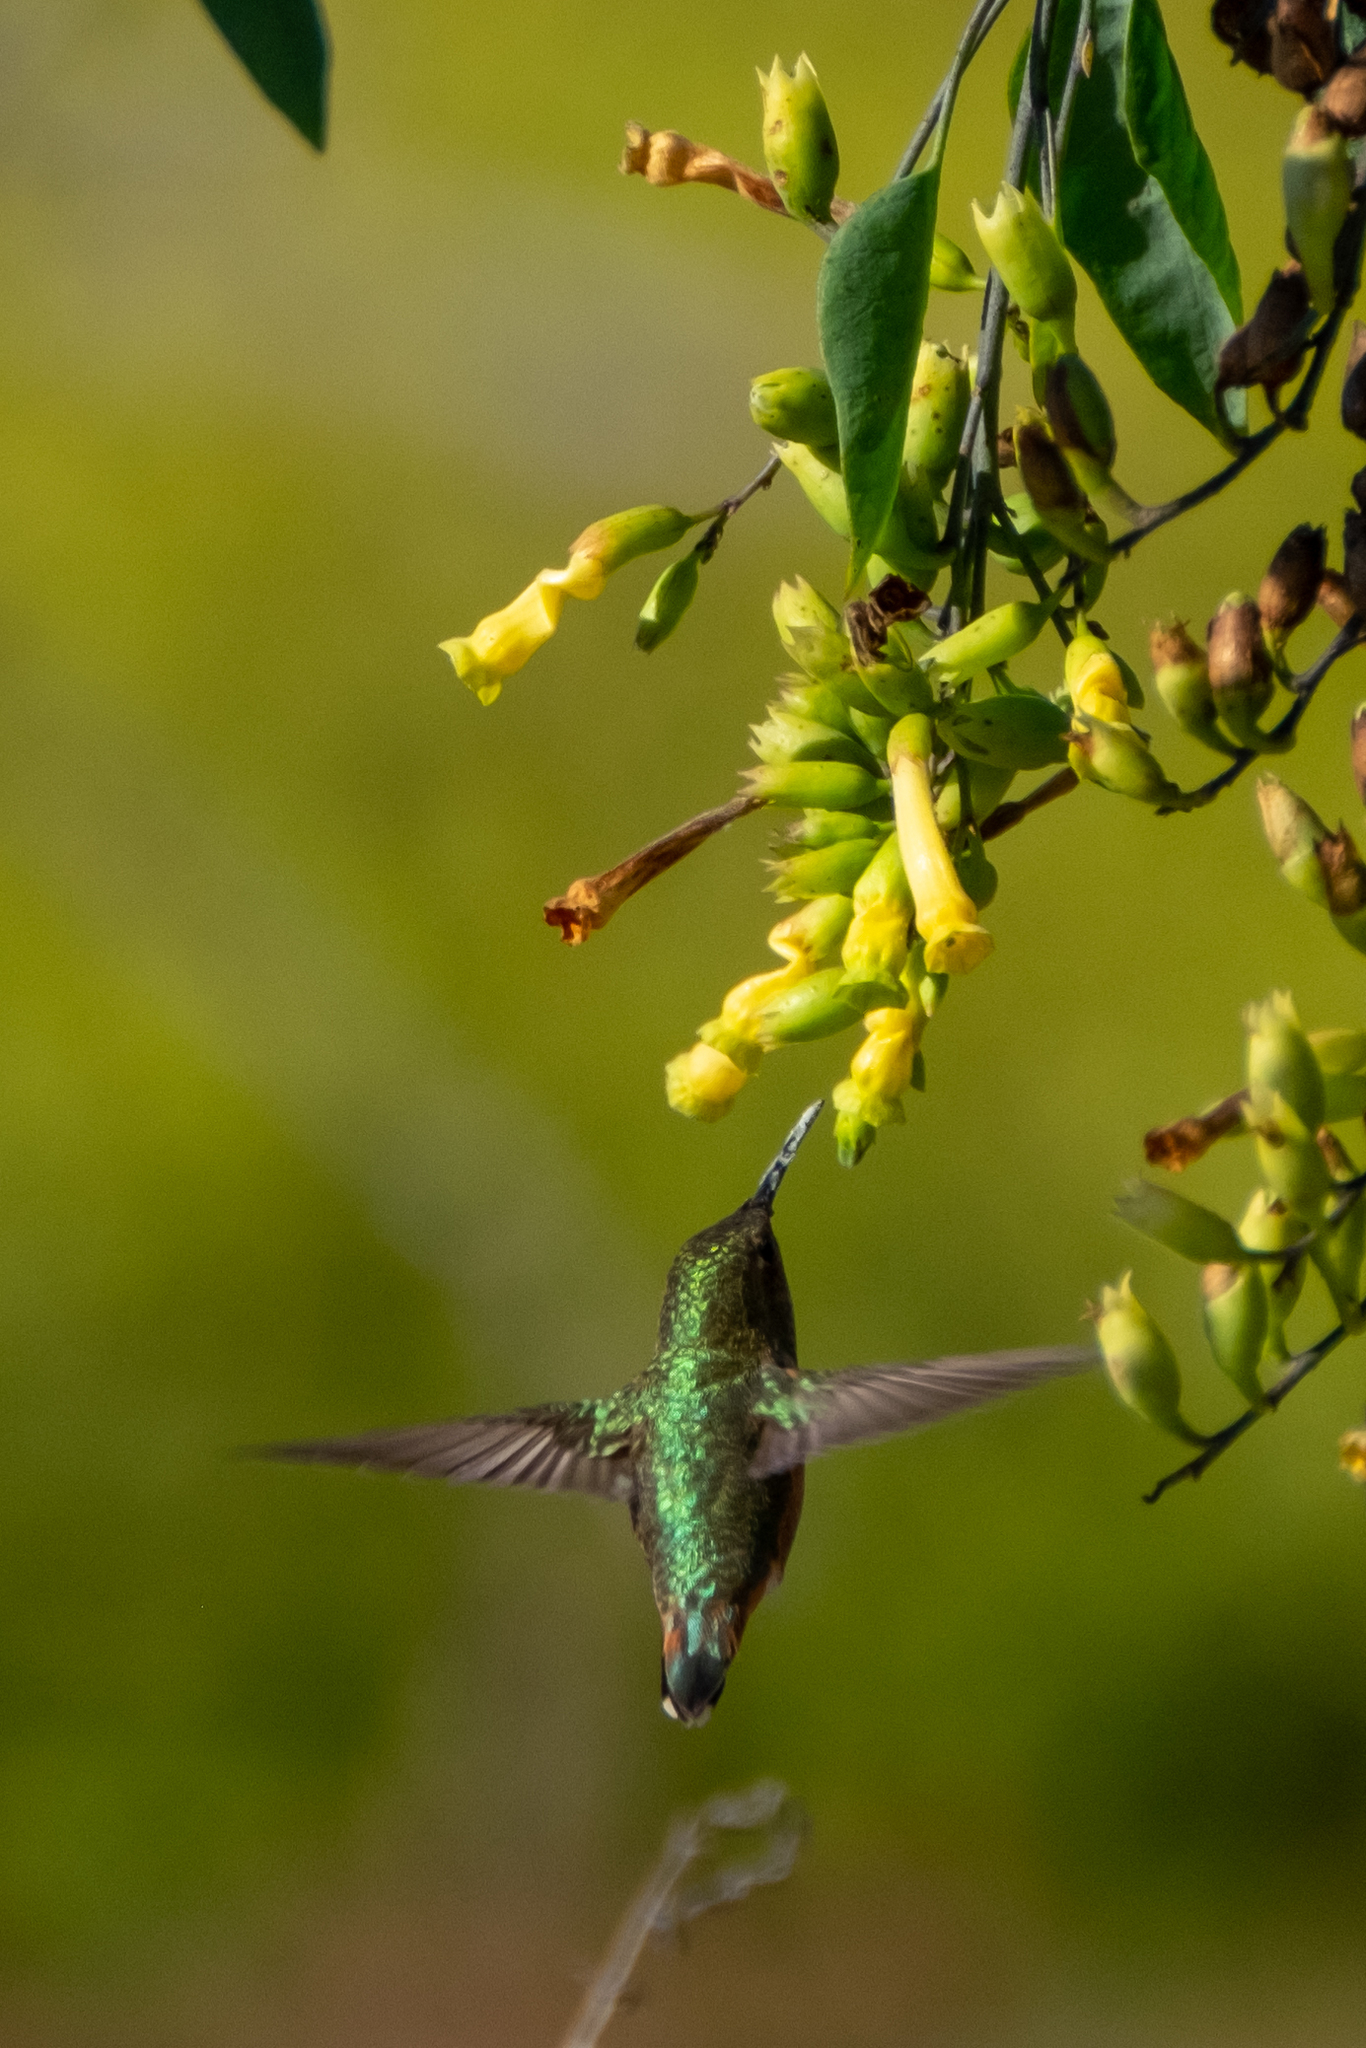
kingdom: Animalia
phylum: Chordata
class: Aves
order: Apodiformes
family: Trochilidae
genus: Selasphorus
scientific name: Selasphorus
